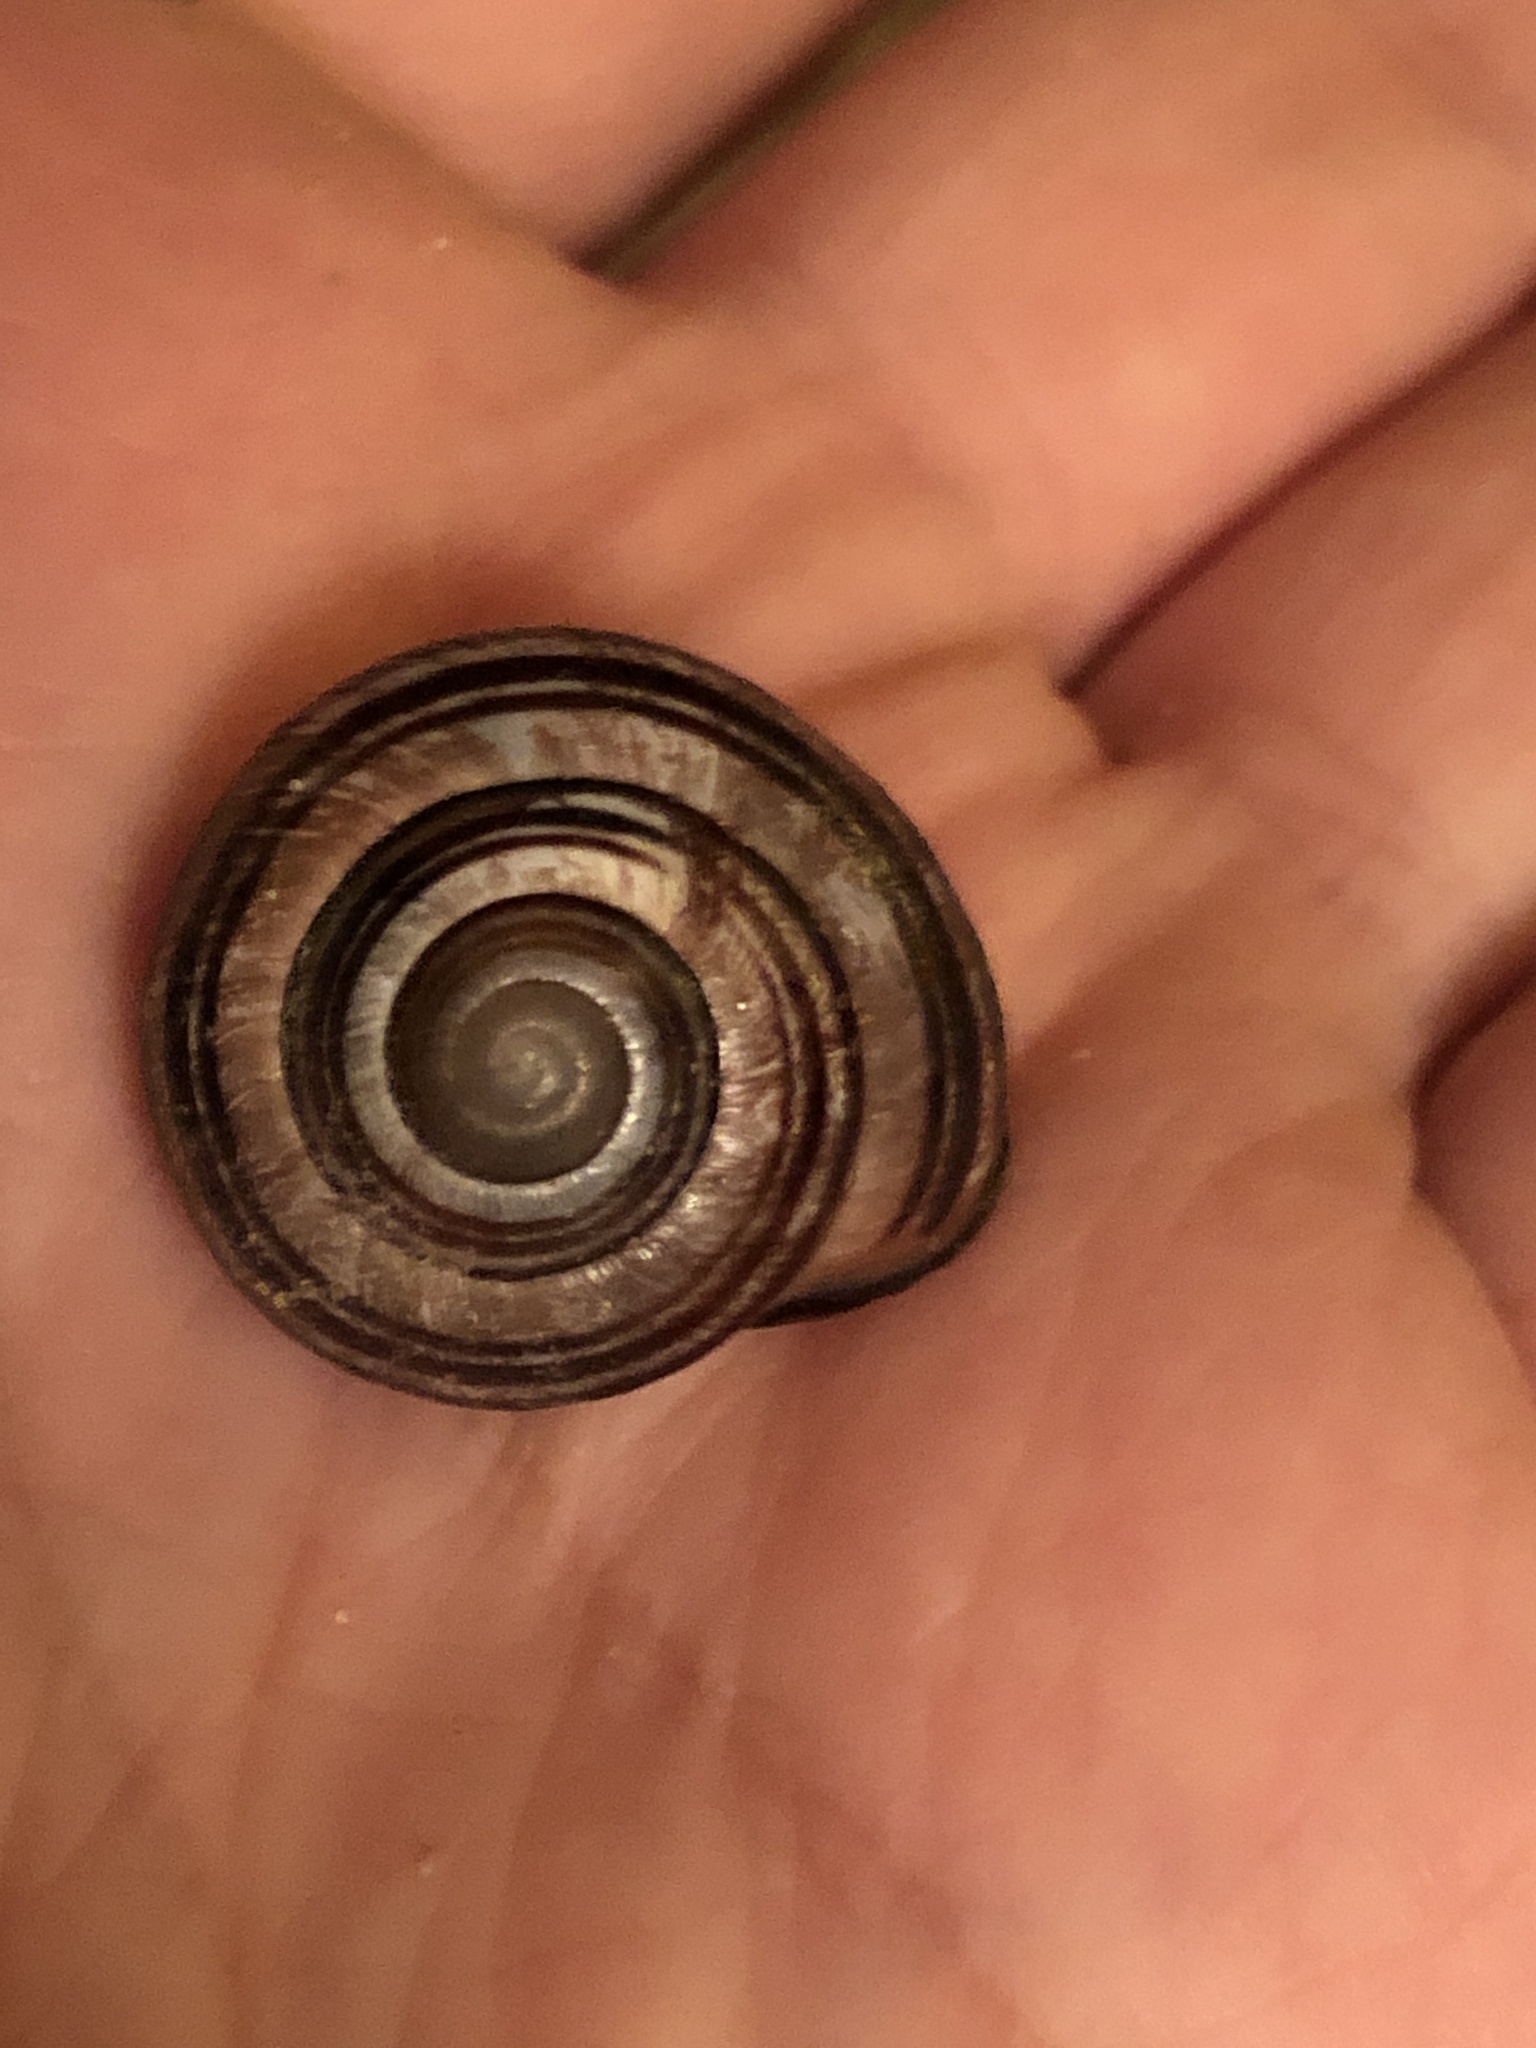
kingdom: Animalia
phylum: Mollusca
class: Gastropoda
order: Stylommatophora
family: Helicidae
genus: Cepaea
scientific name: Cepaea nemoralis
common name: Grovesnail
